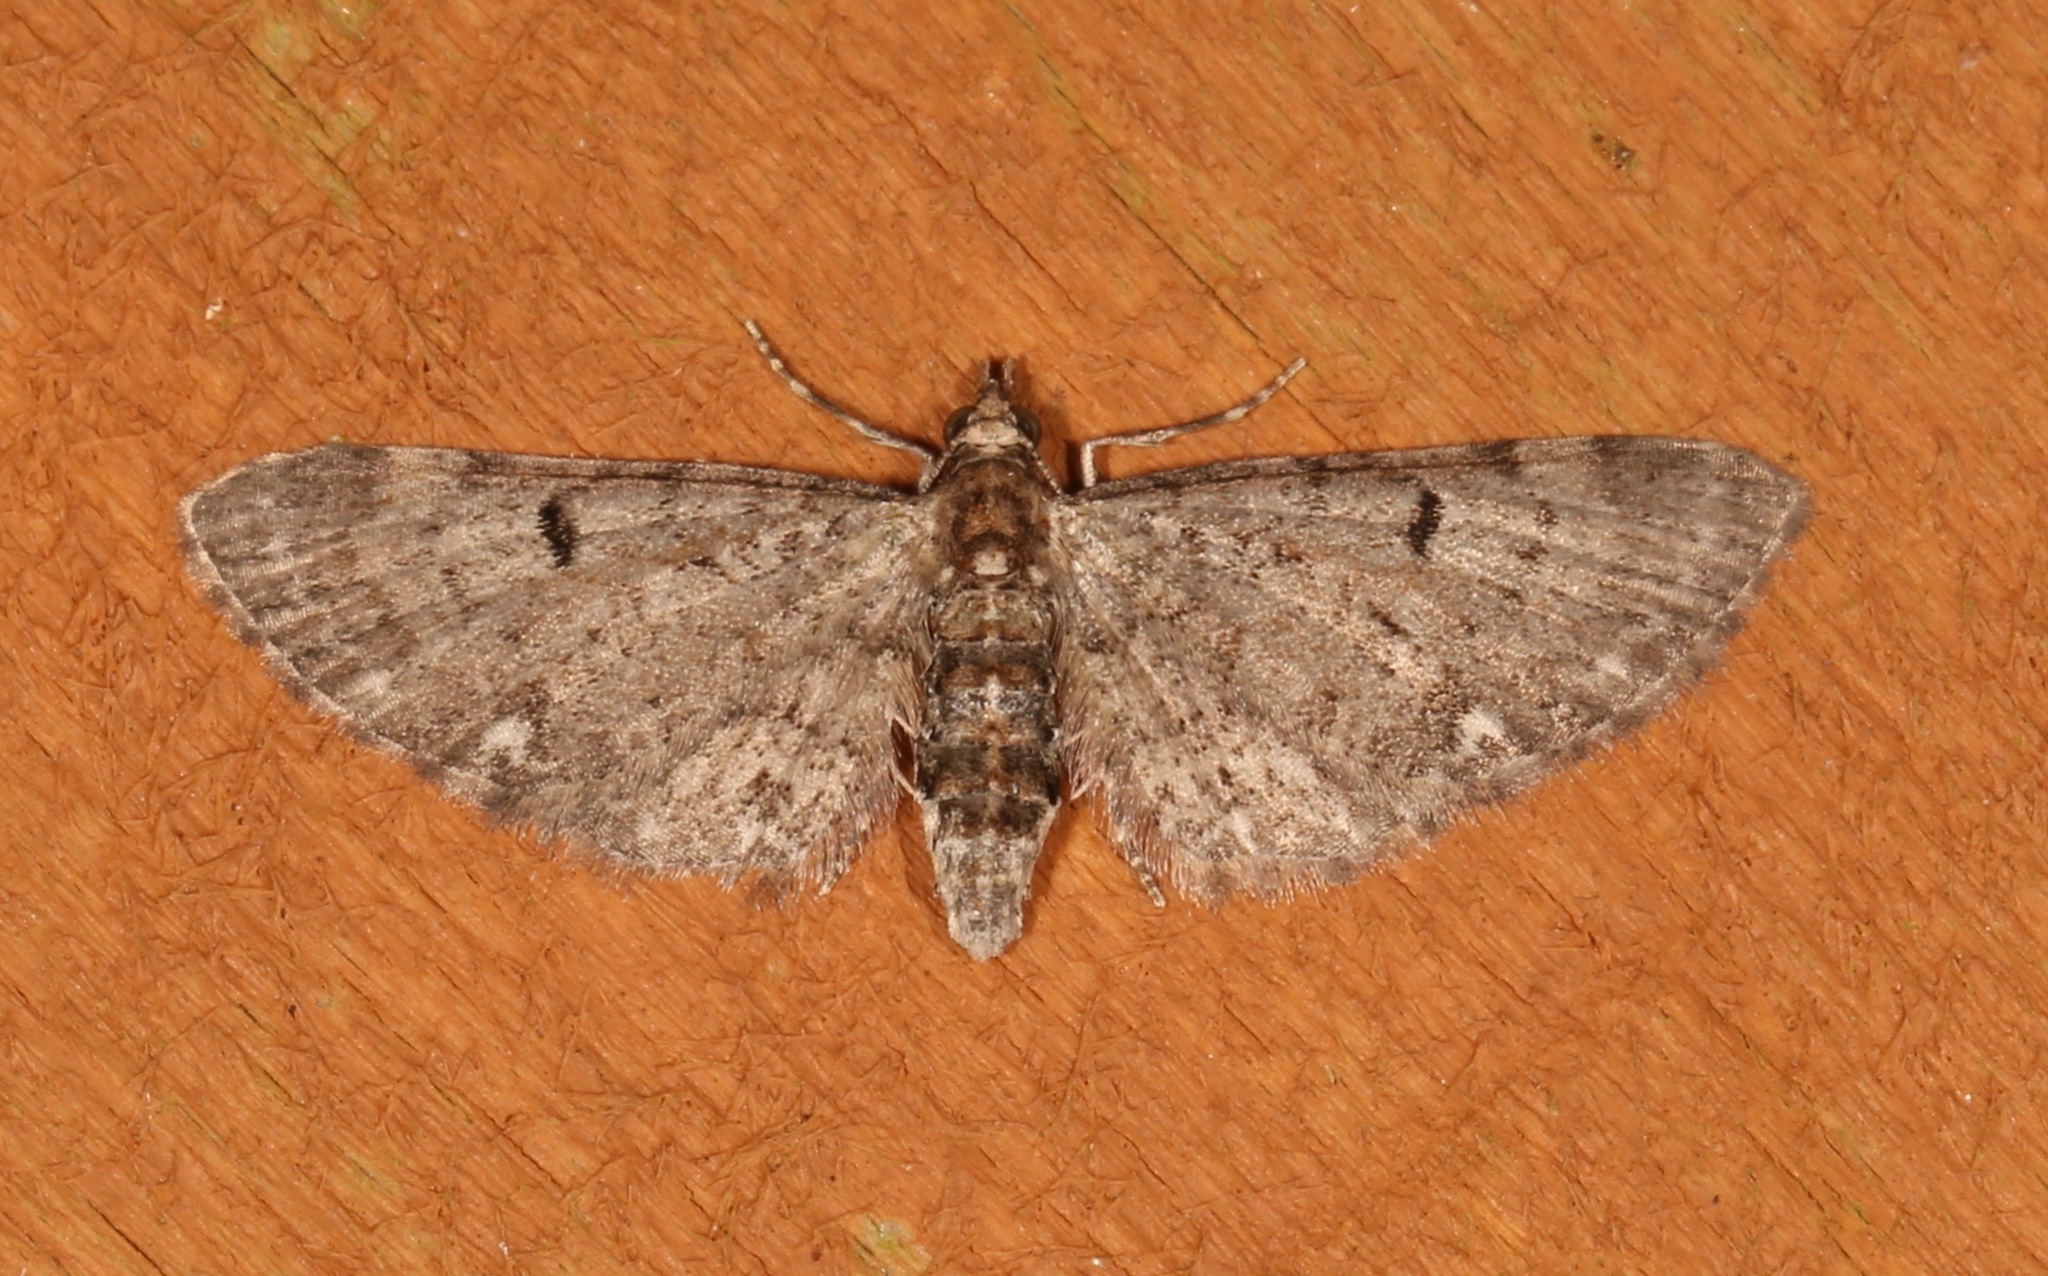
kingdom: Animalia
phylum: Arthropoda
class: Insecta
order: Lepidoptera
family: Geometridae
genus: Eupithecia
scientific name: Eupithecia miserulata
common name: Common eupithecia
